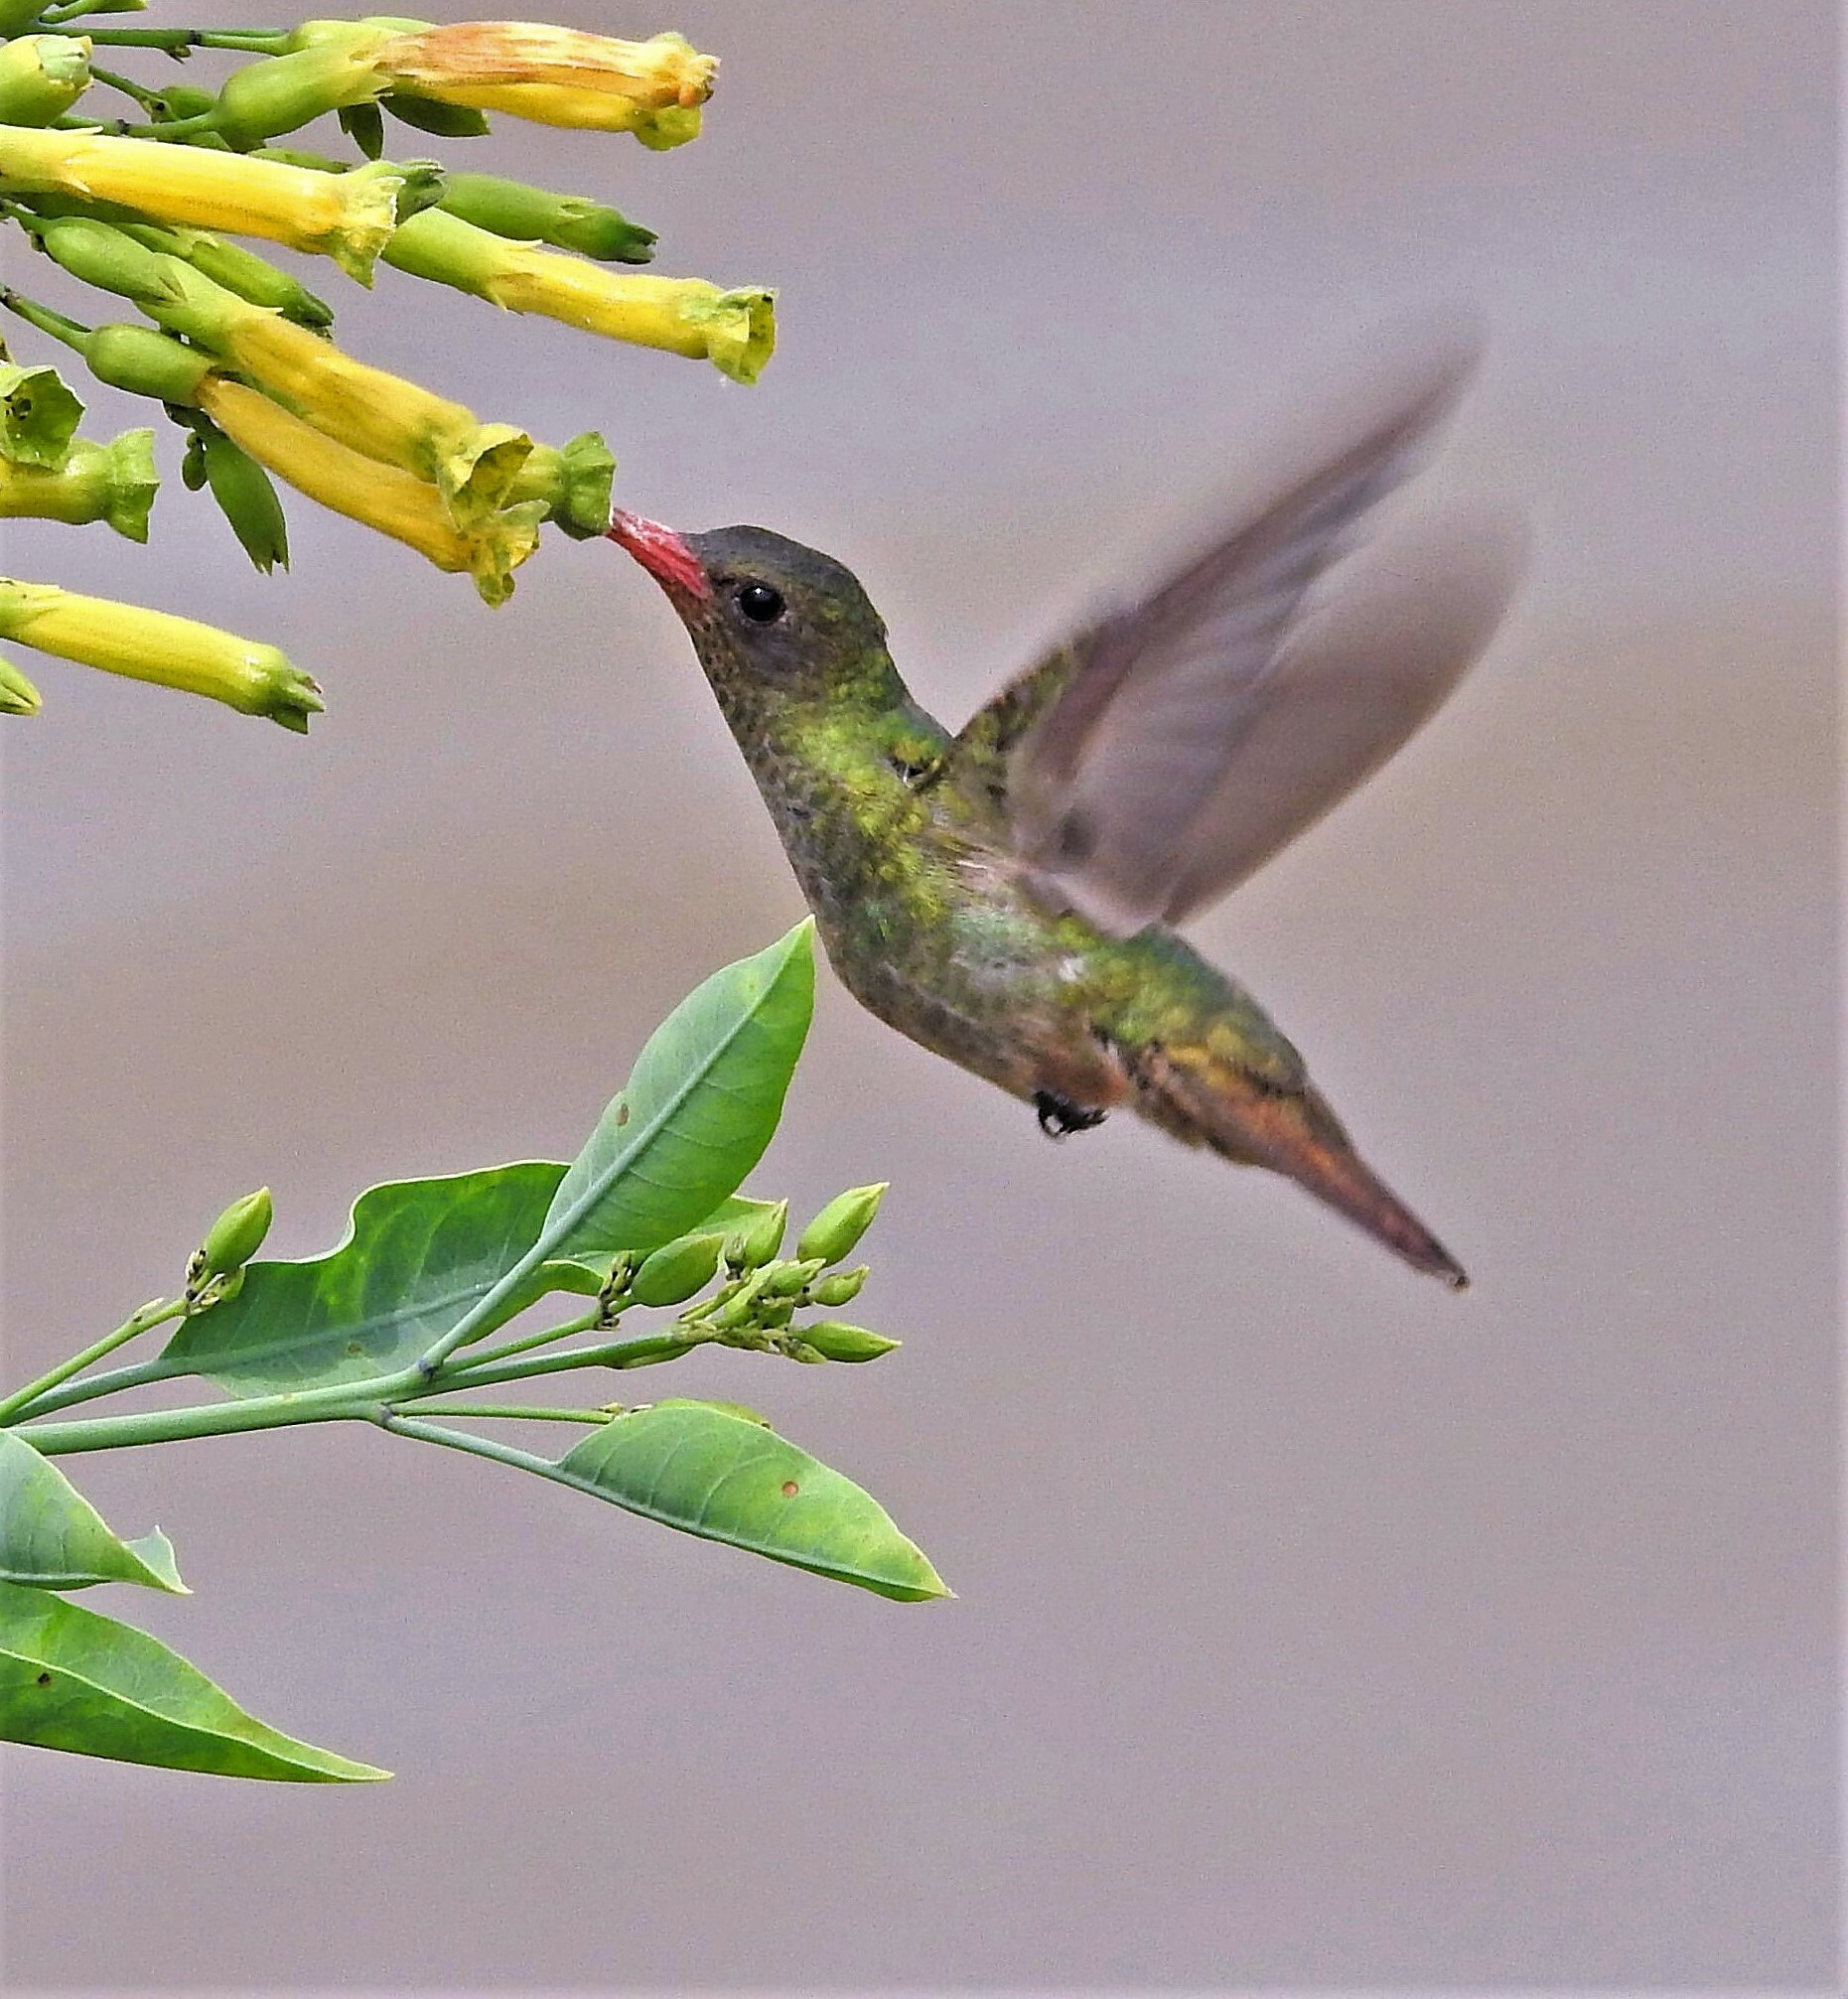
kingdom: Animalia
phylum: Chordata
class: Aves
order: Apodiformes
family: Trochilidae
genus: Hylocharis
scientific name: Hylocharis chrysura
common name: Gilded sapphire
